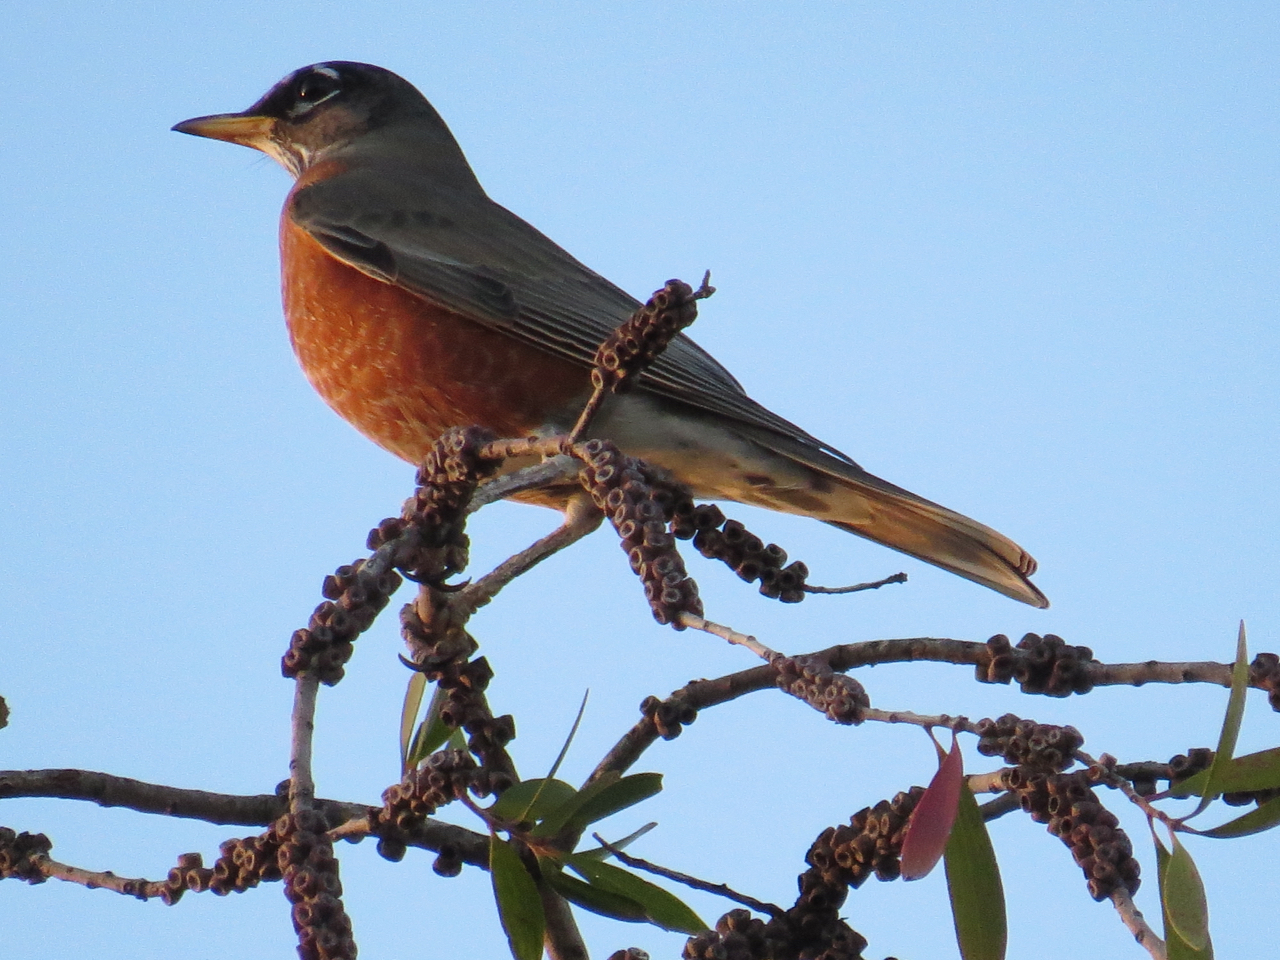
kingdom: Animalia
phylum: Chordata
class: Aves
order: Passeriformes
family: Turdidae
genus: Turdus
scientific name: Turdus migratorius
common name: American robin
